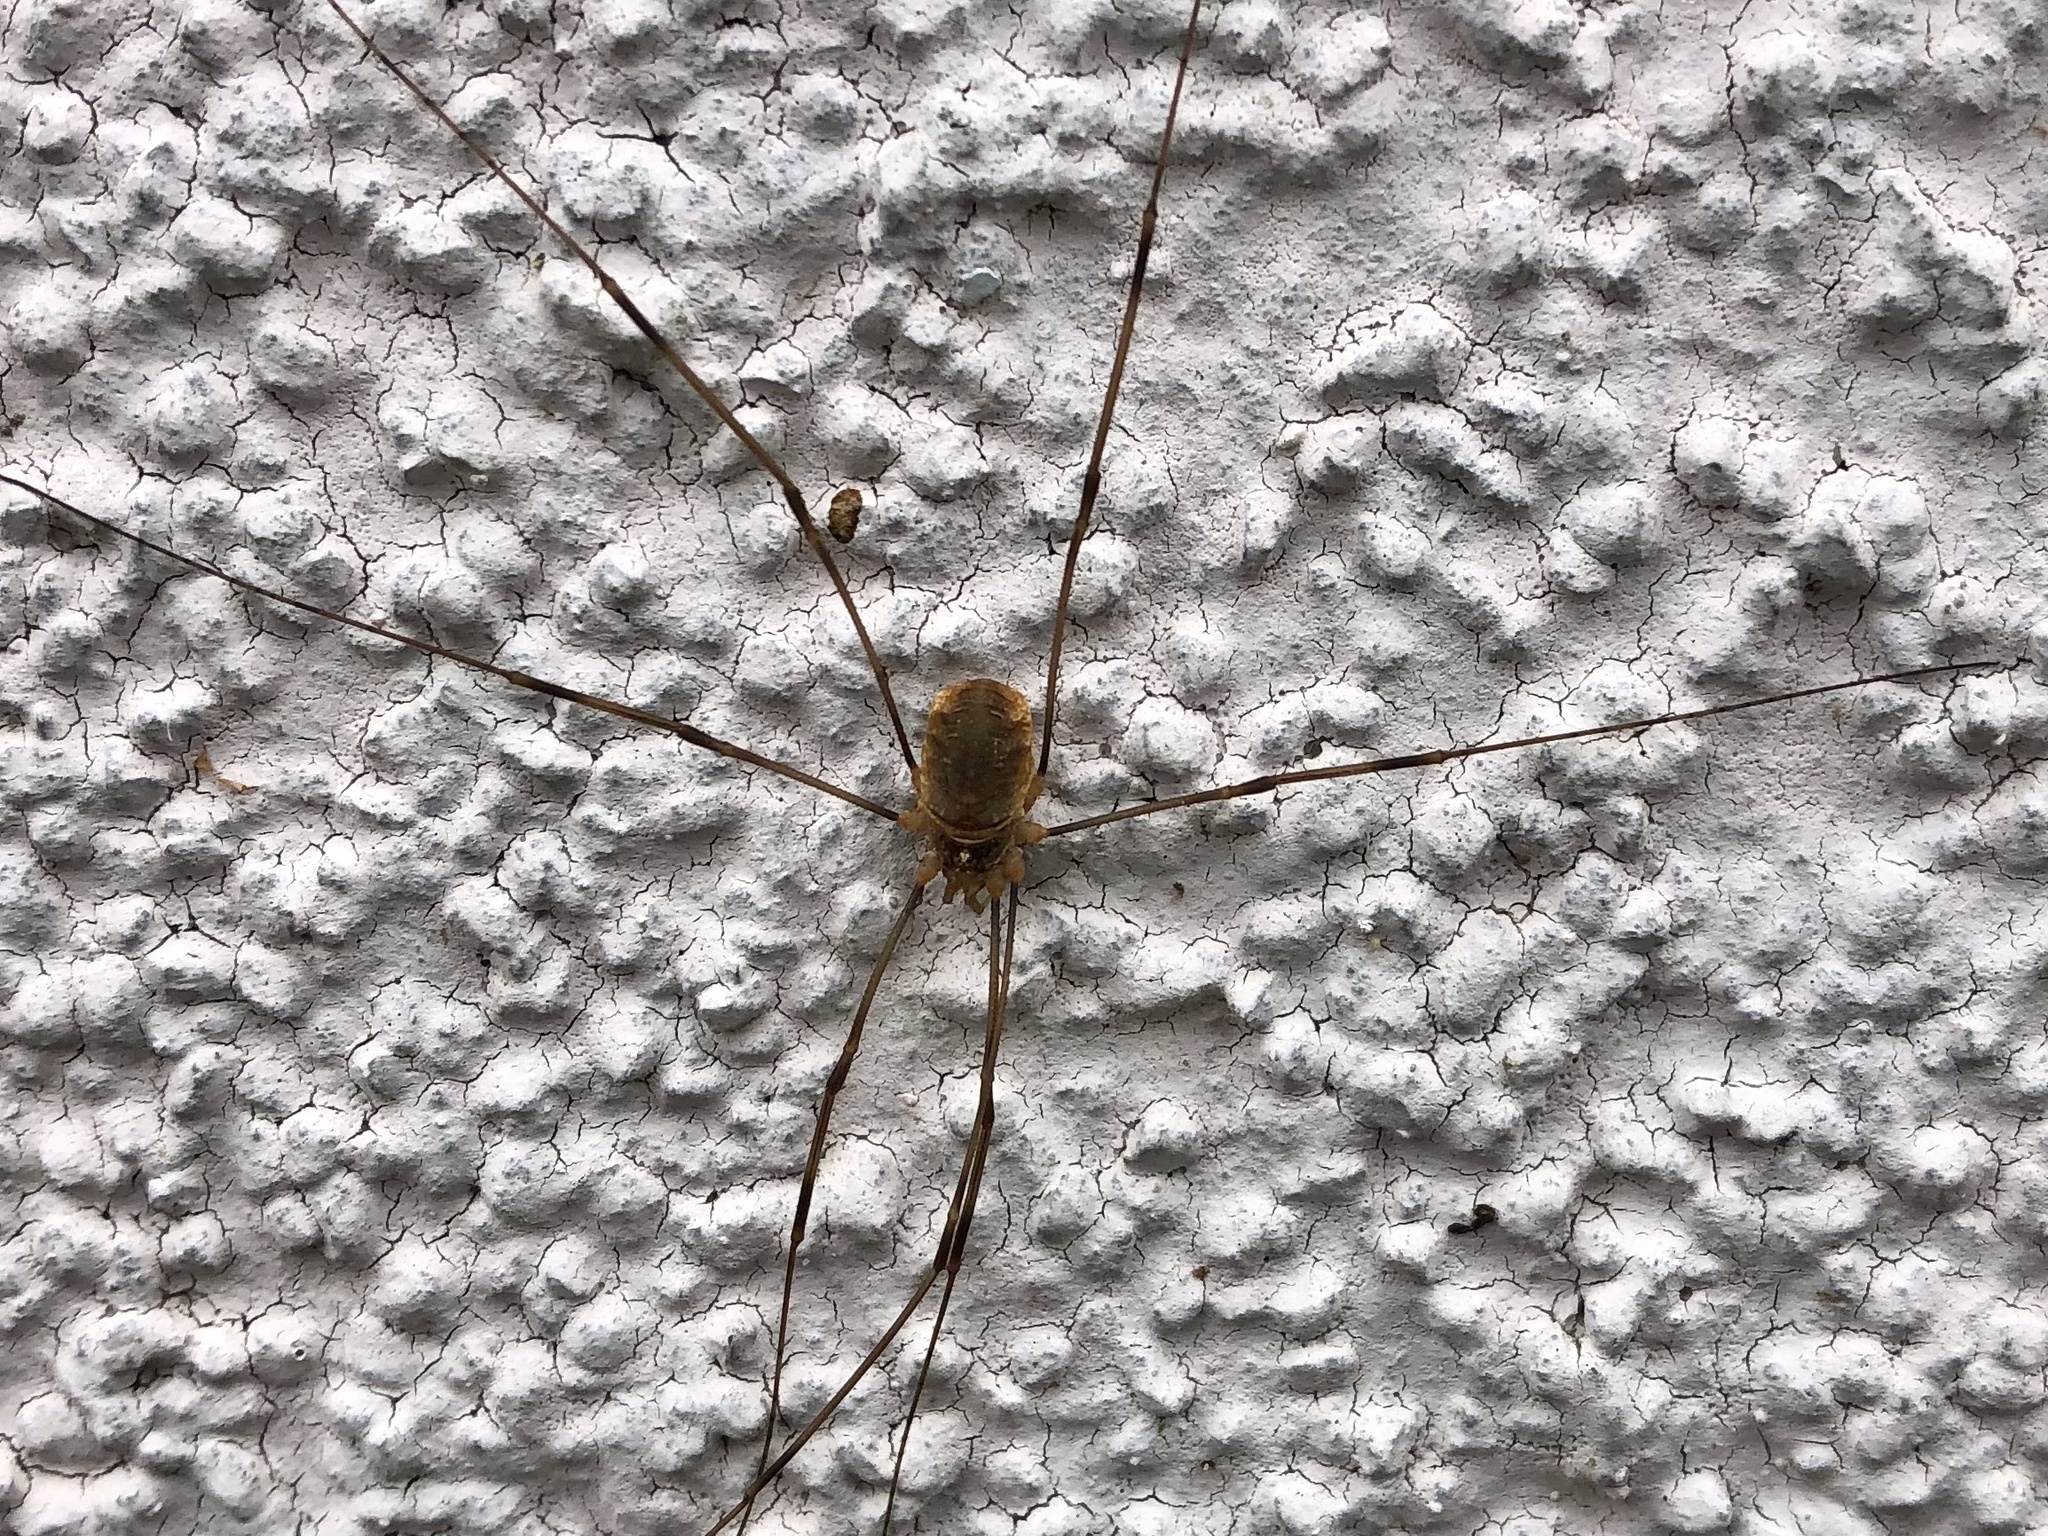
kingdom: Animalia
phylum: Arthropoda
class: Arachnida
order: Opiliones
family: Phalangiidae
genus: Opilio
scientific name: Opilio canestrinii
